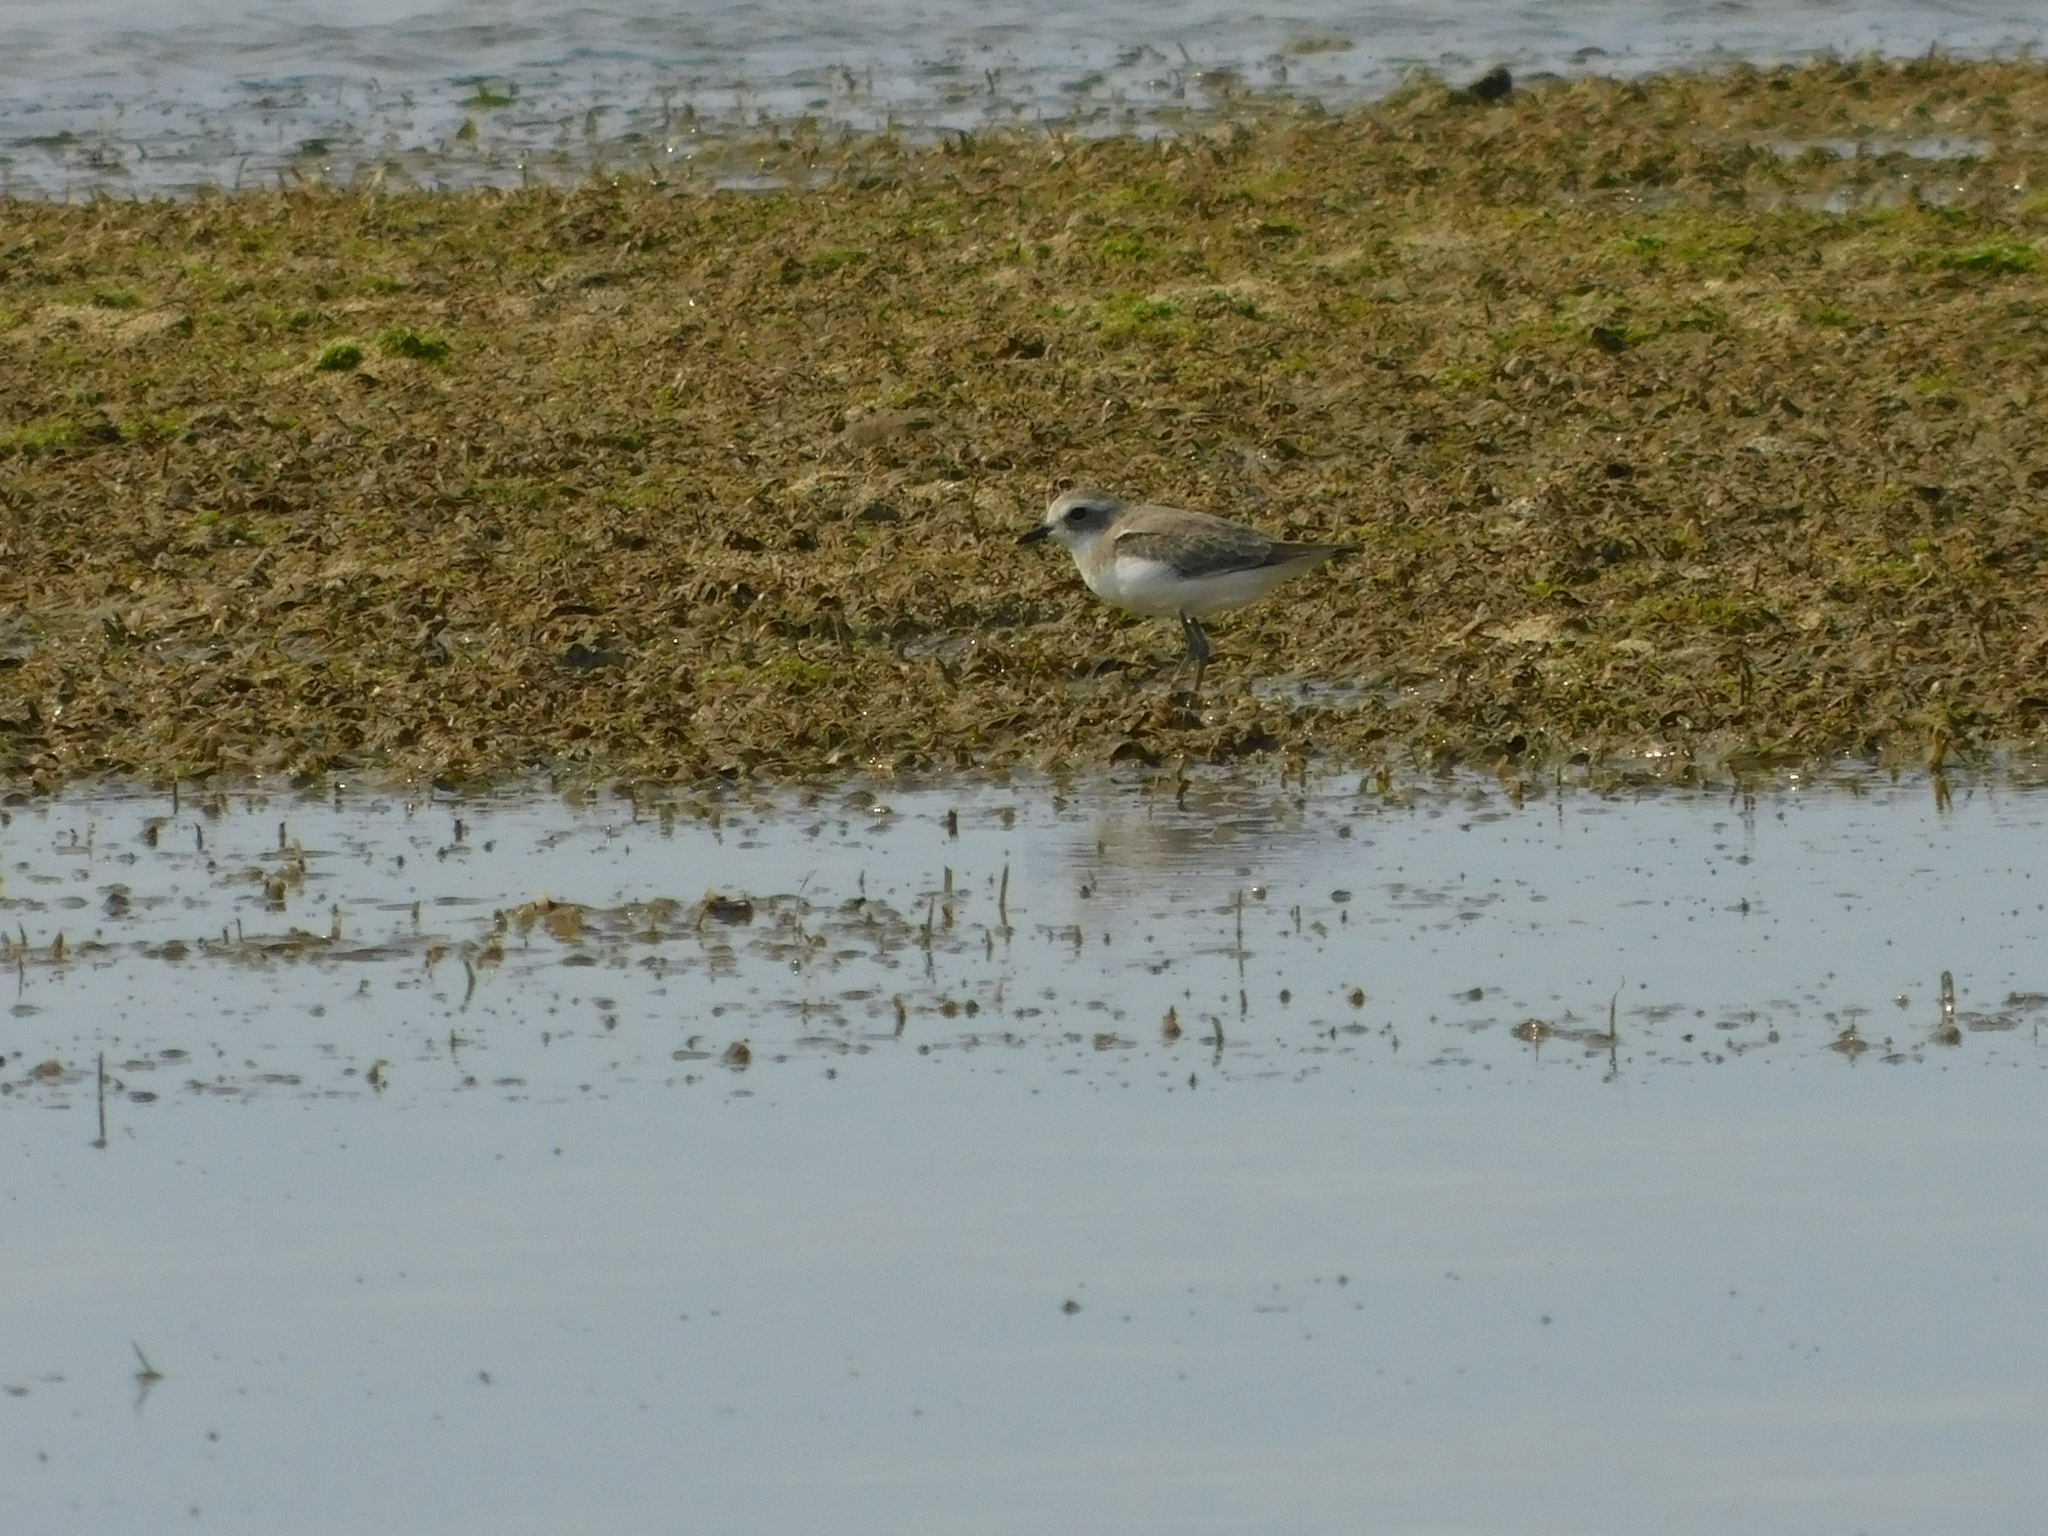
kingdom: Animalia
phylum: Chordata
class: Aves
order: Charadriiformes
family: Charadriidae
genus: Charadrius
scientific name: Charadrius leschenaultii
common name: Greater sand plover
